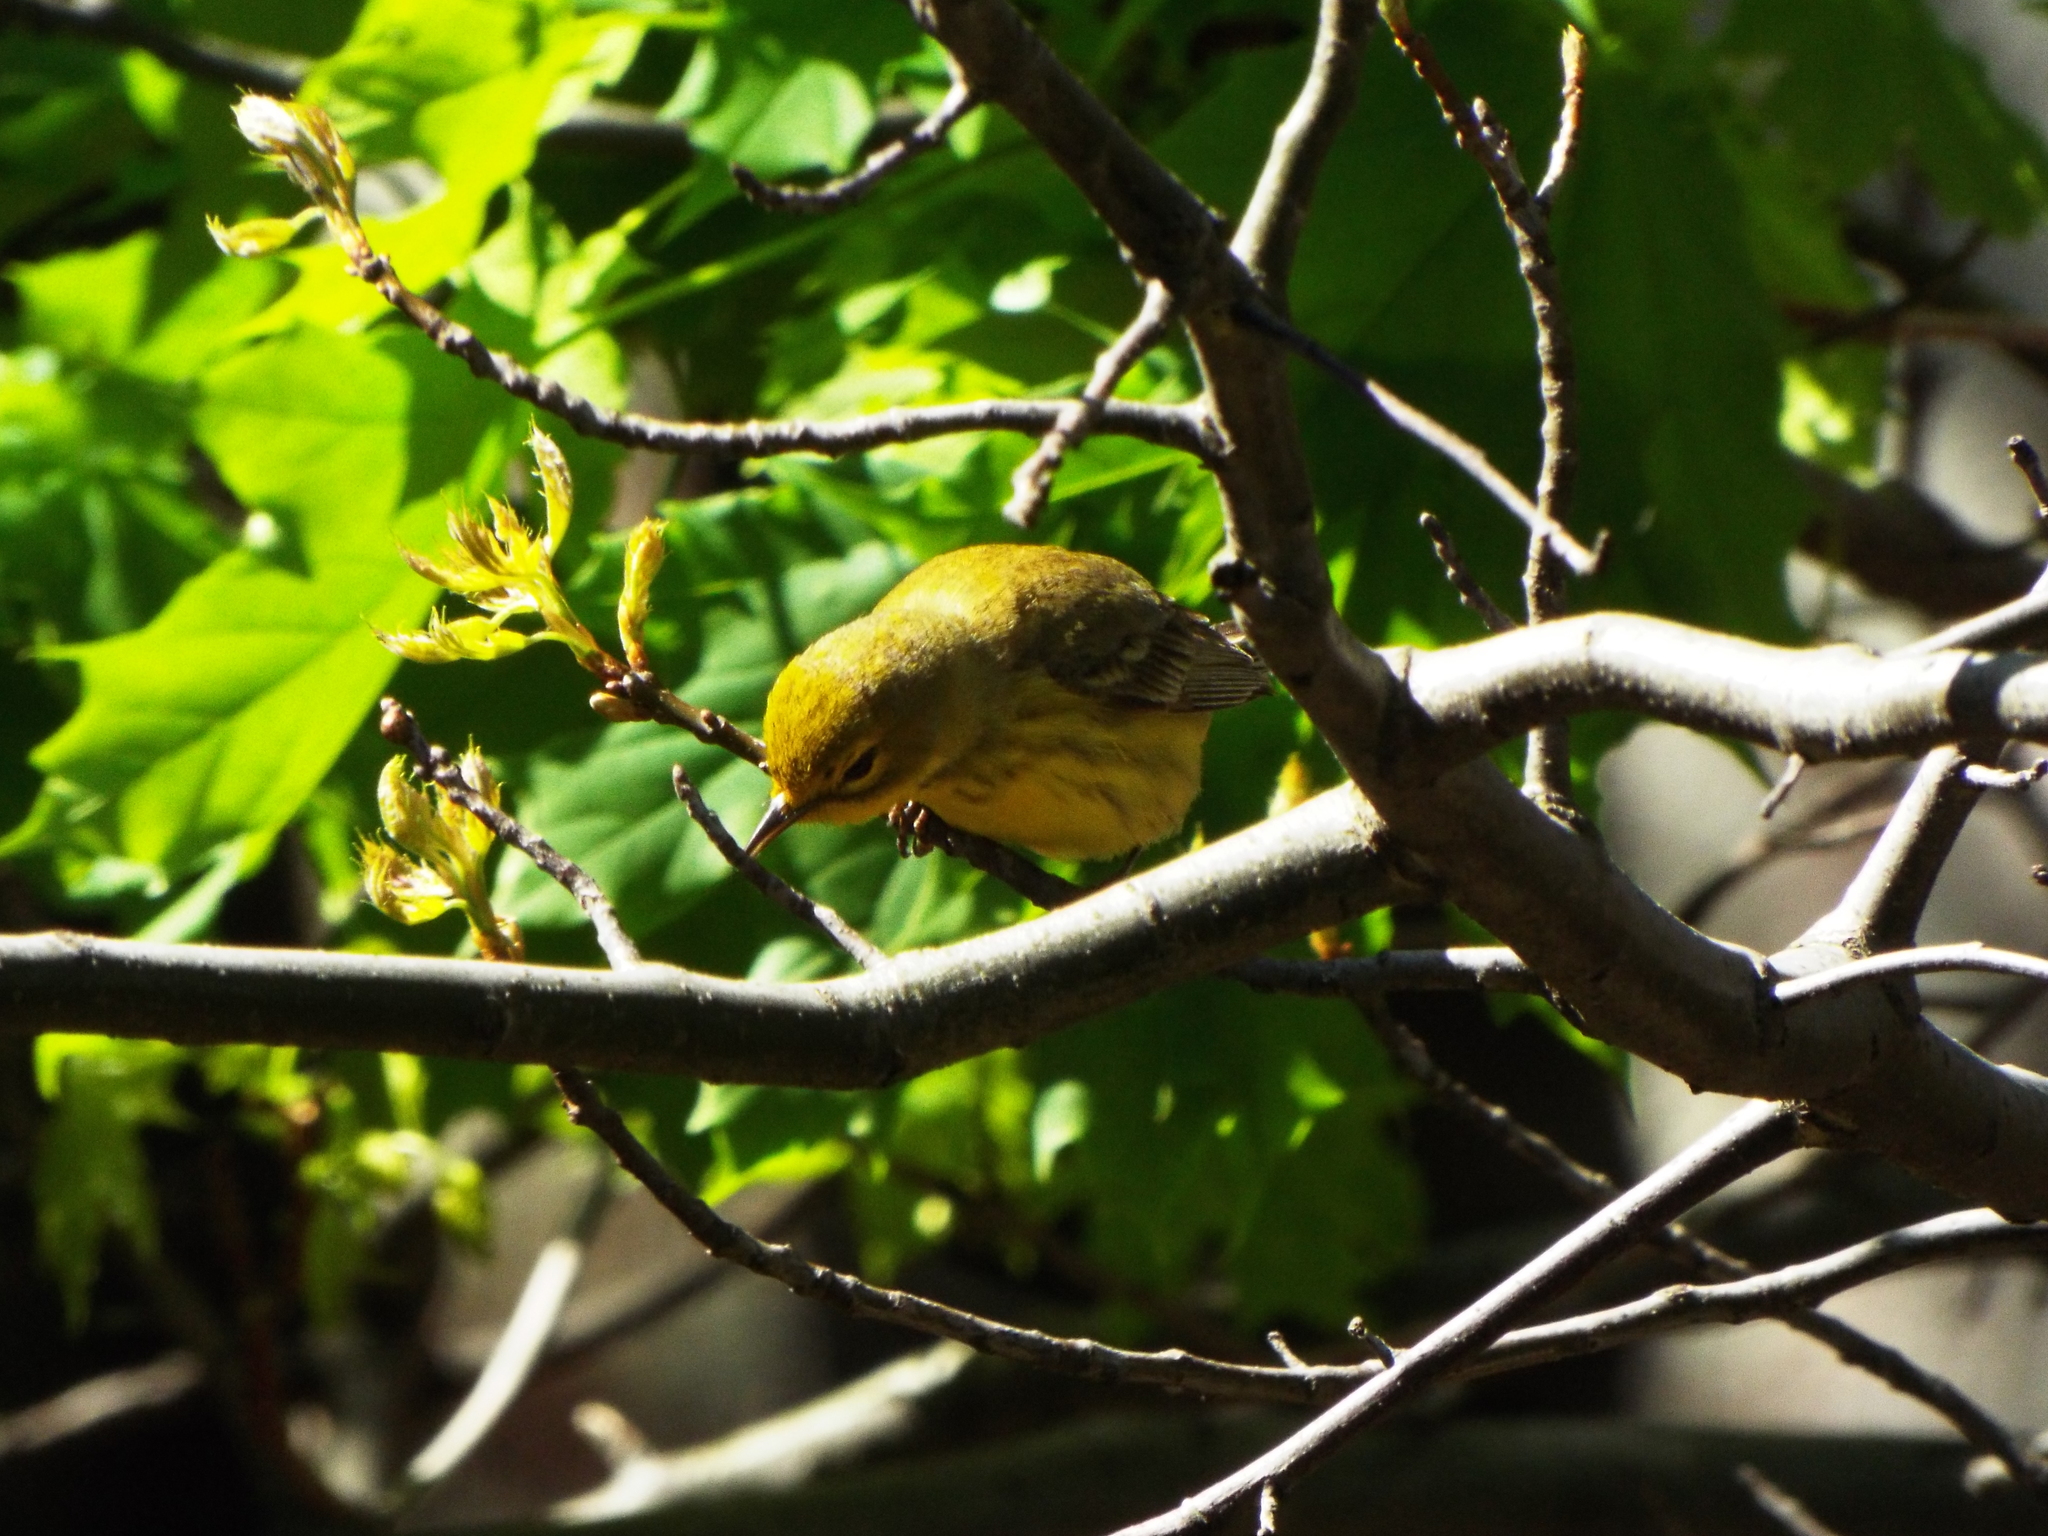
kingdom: Animalia
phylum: Chordata
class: Aves
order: Passeriformes
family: Parulidae
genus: Setophaga
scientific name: Setophaga discolor
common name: Prairie warbler
